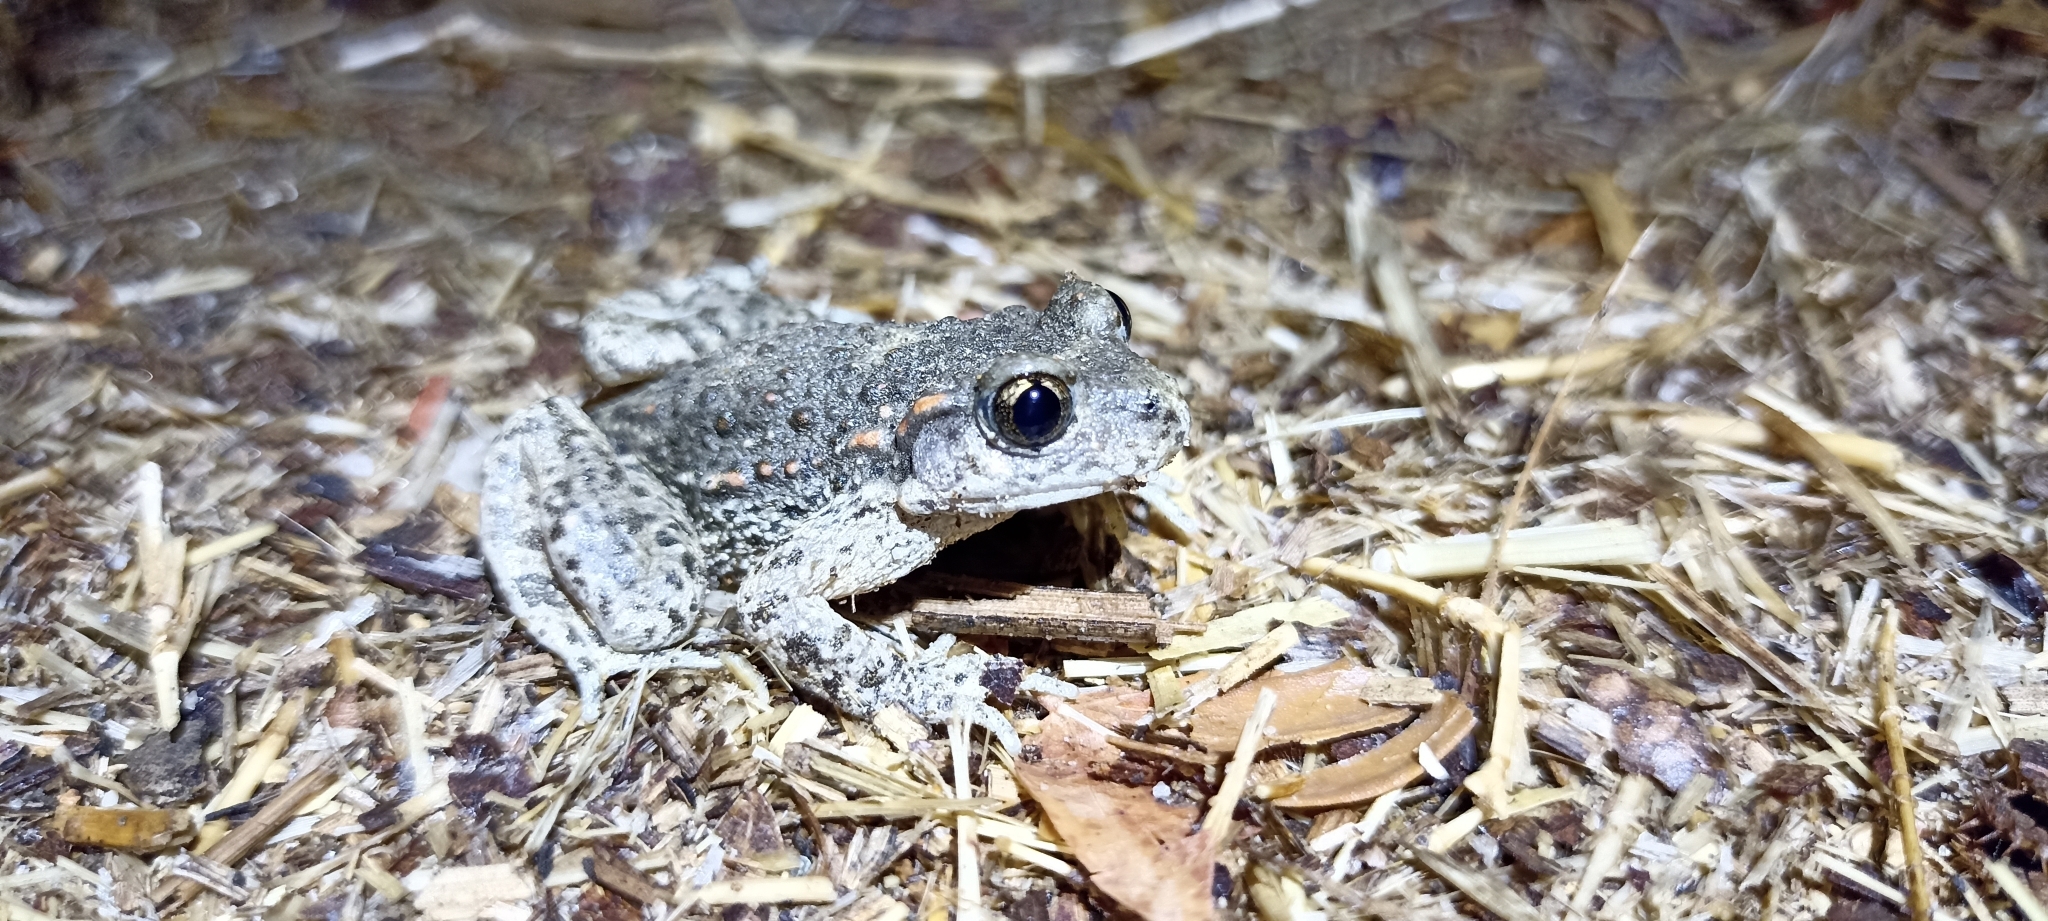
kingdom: Animalia
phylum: Chordata
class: Amphibia
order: Anura
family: Alytidae
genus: Alytes
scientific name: Alytes obstetricans
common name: Midwife toad
